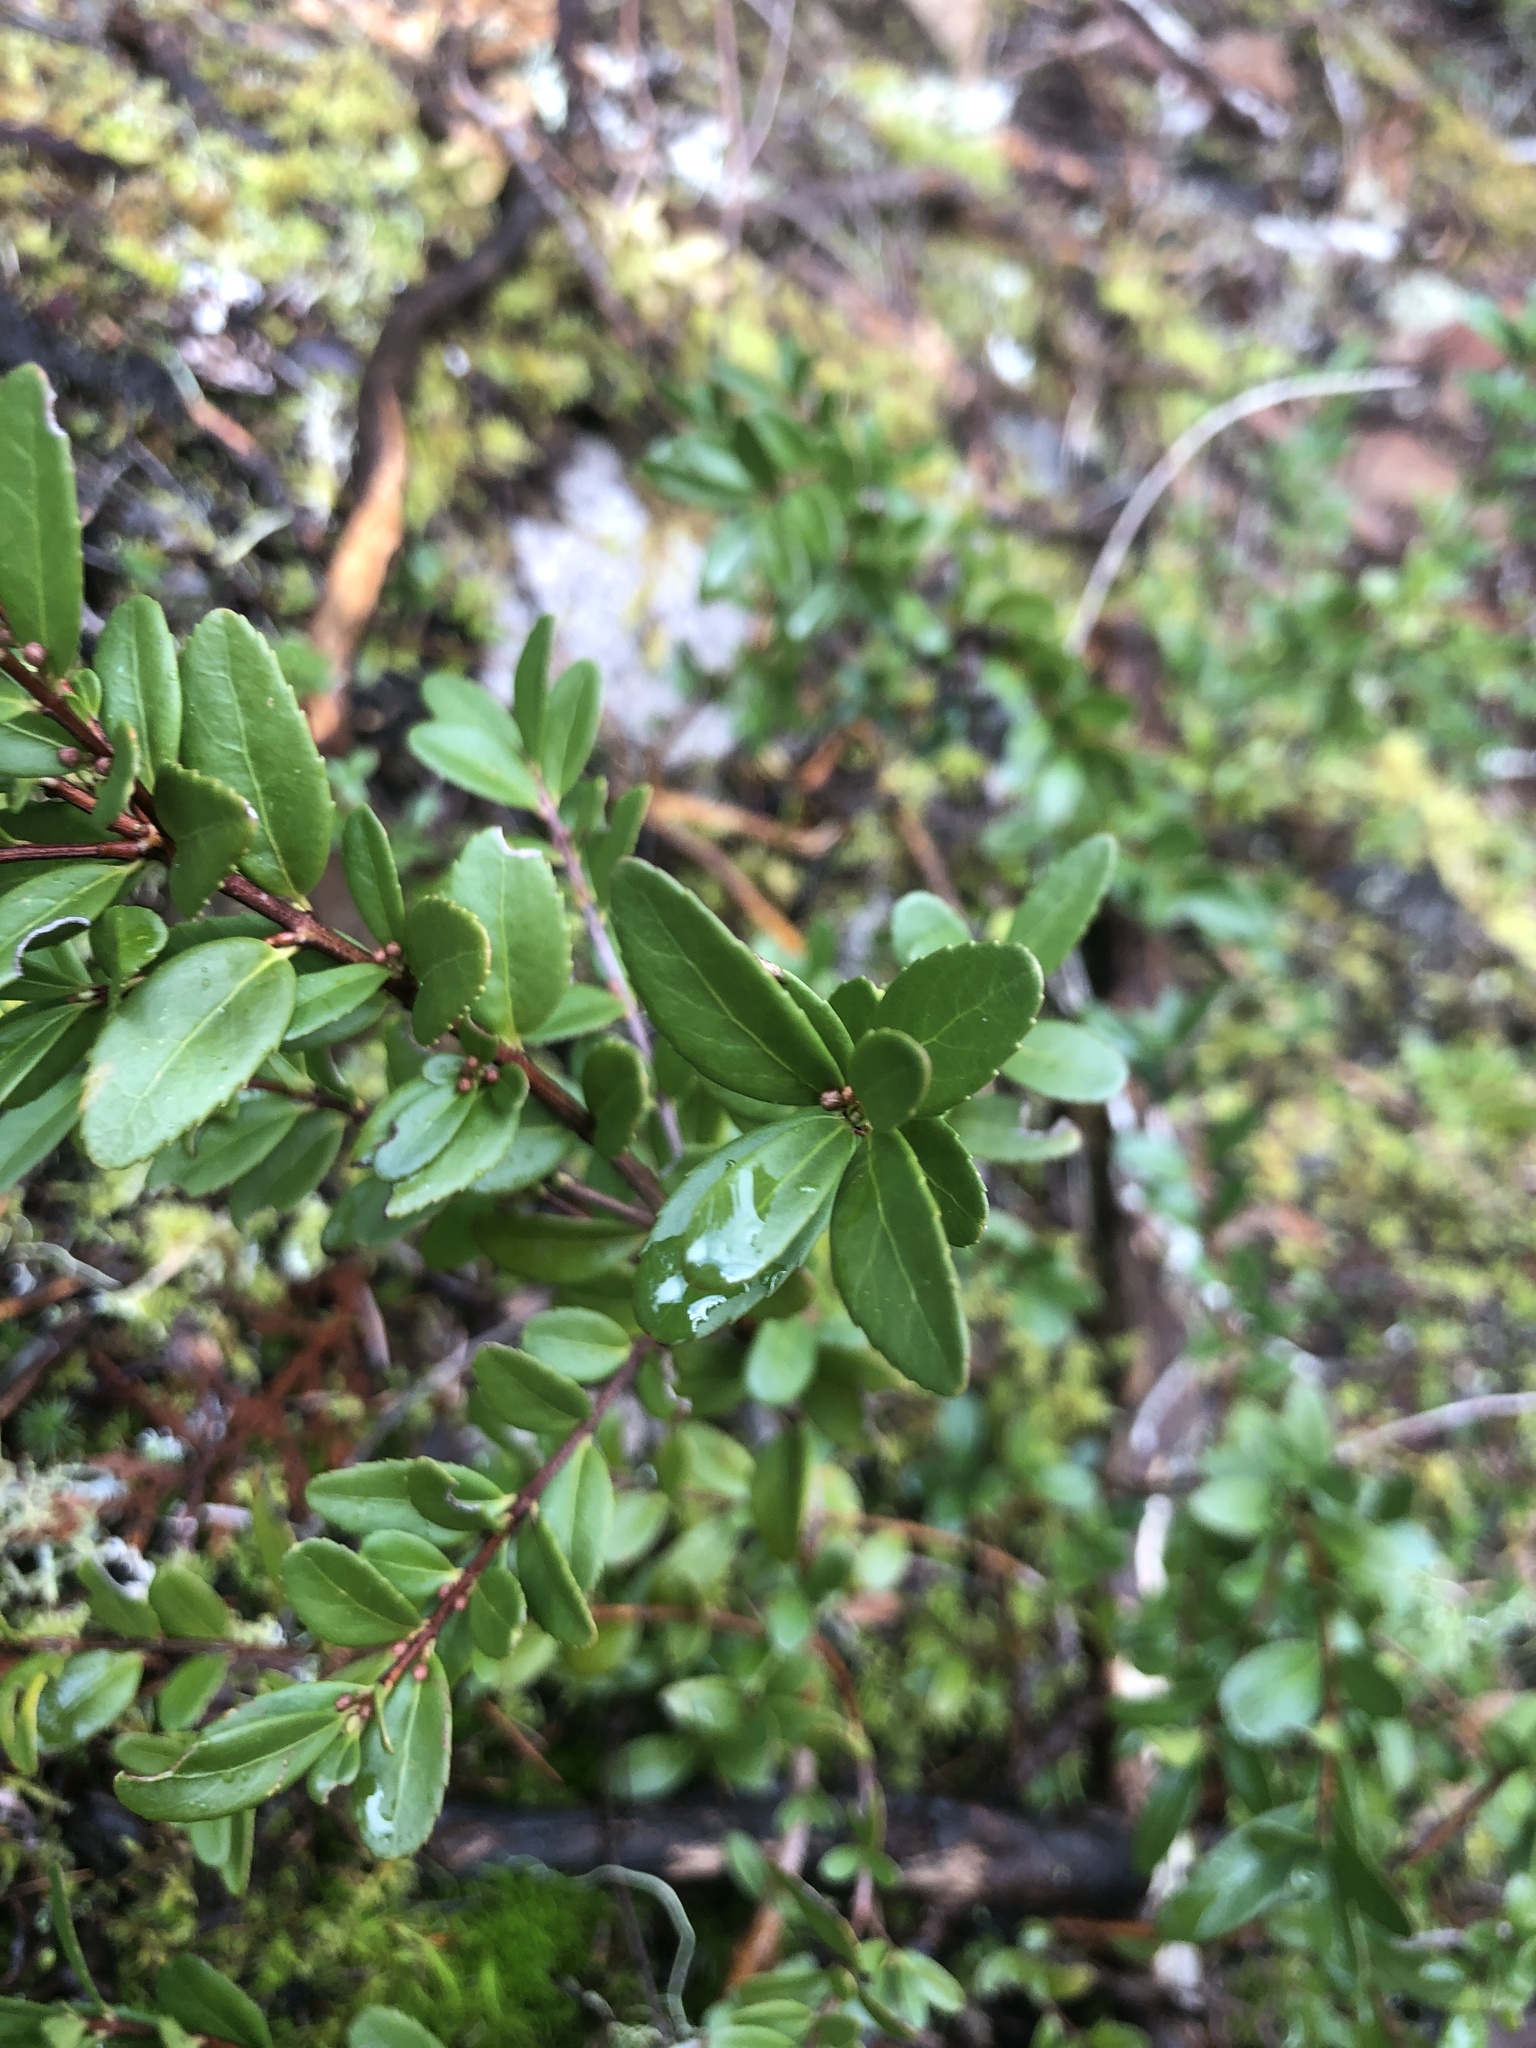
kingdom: Plantae
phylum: Tracheophyta
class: Magnoliopsida
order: Celastrales
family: Celastraceae
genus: Paxistima
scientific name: Paxistima myrsinites
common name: Mountain-lover
